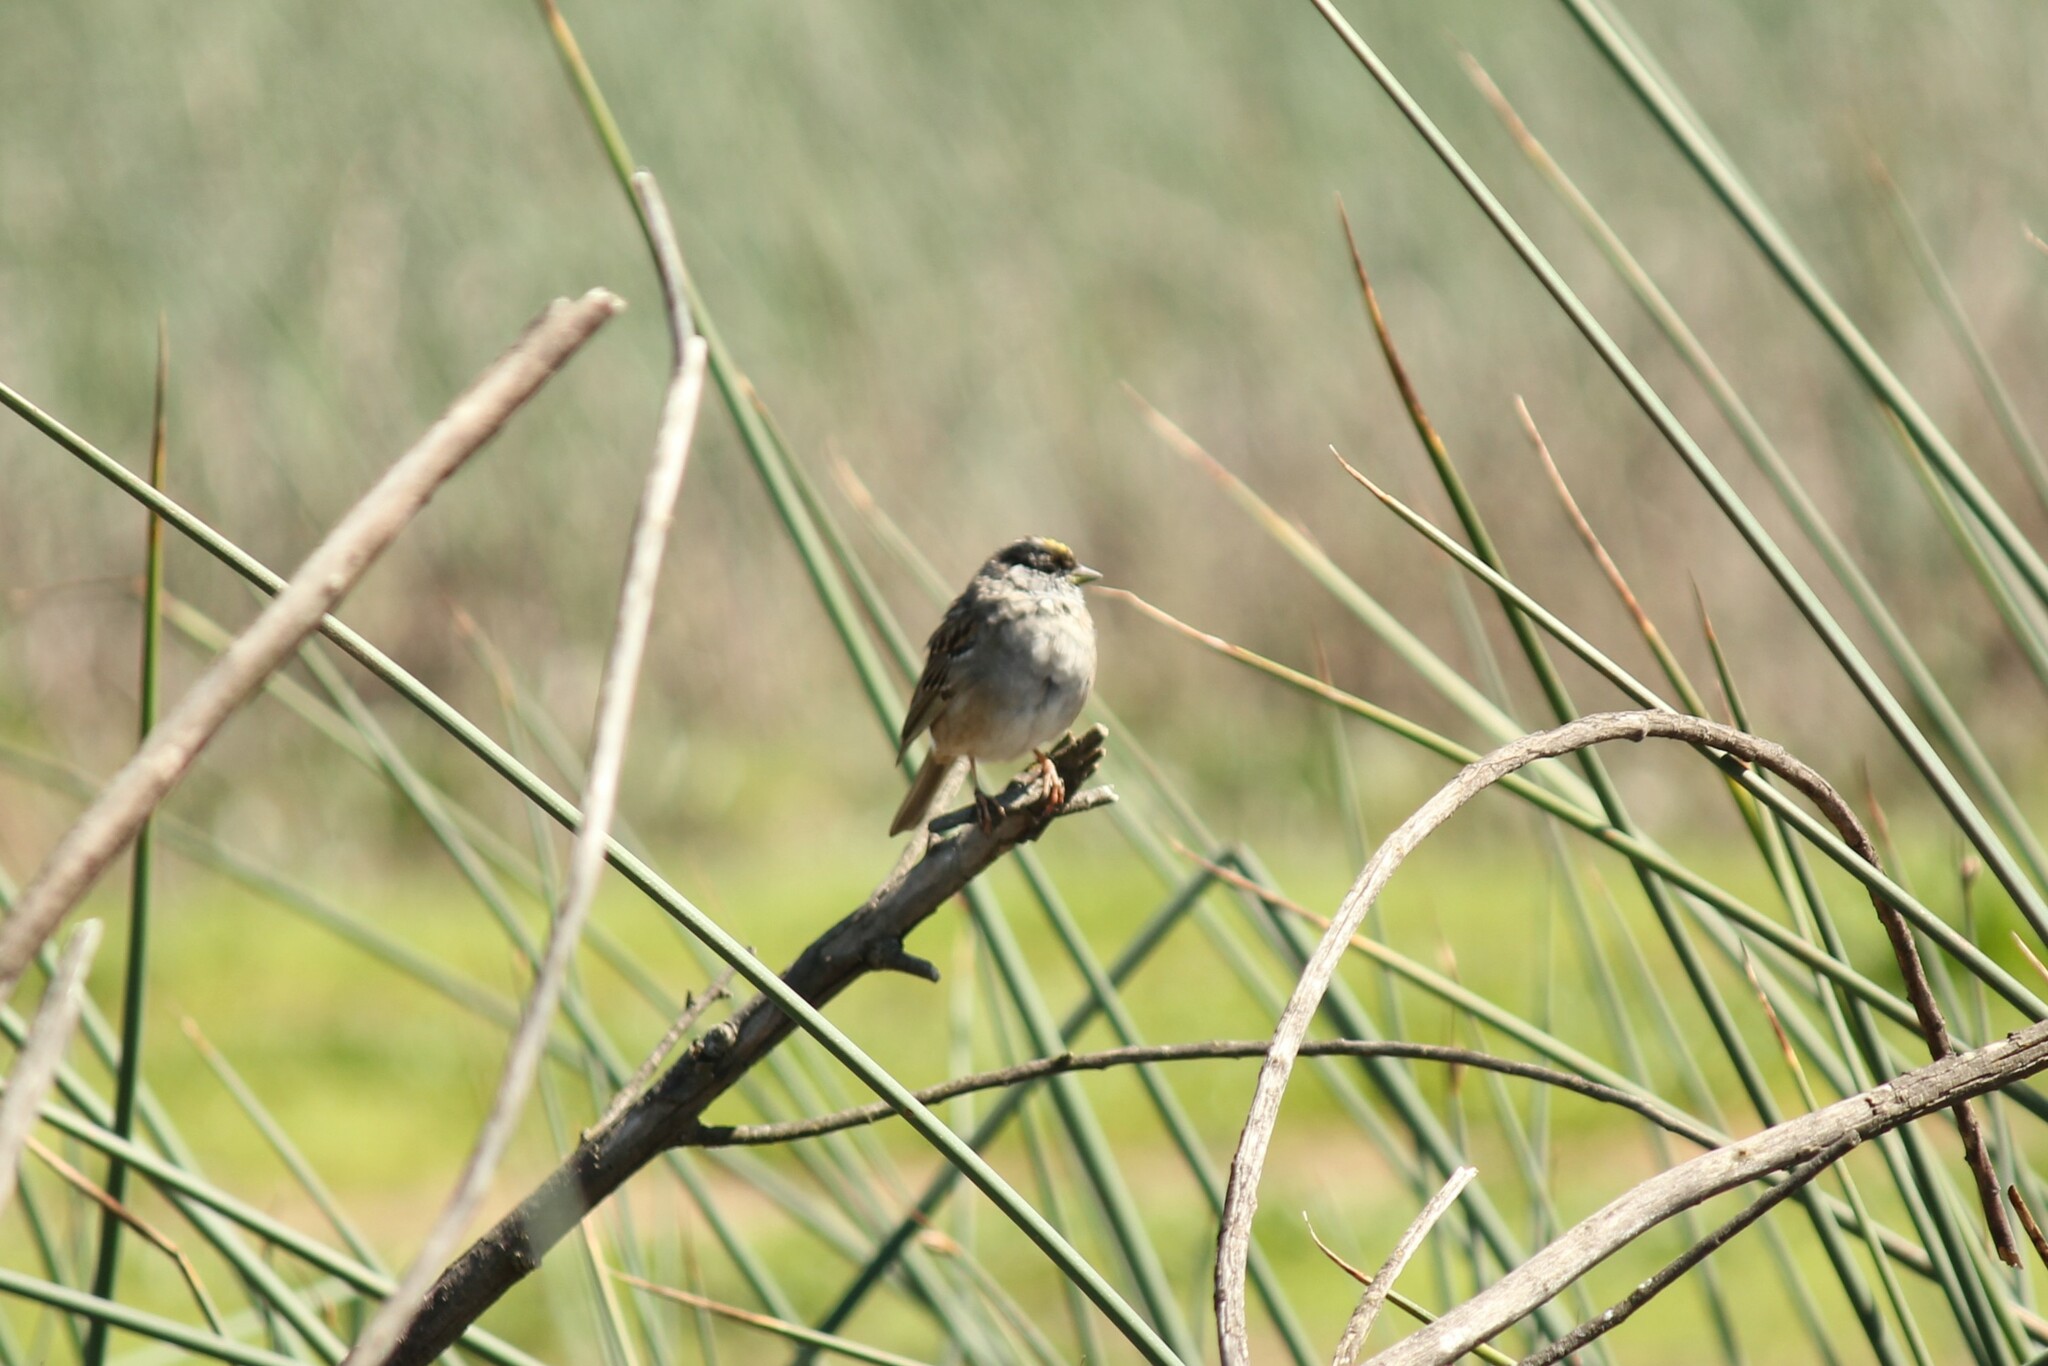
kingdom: Animalia
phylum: Chordata
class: Aves
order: Passeriformes
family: Passerellidae
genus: Zonotrichia
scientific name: Zonotrichia atricapilla
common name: Golden-crowned sparrow
